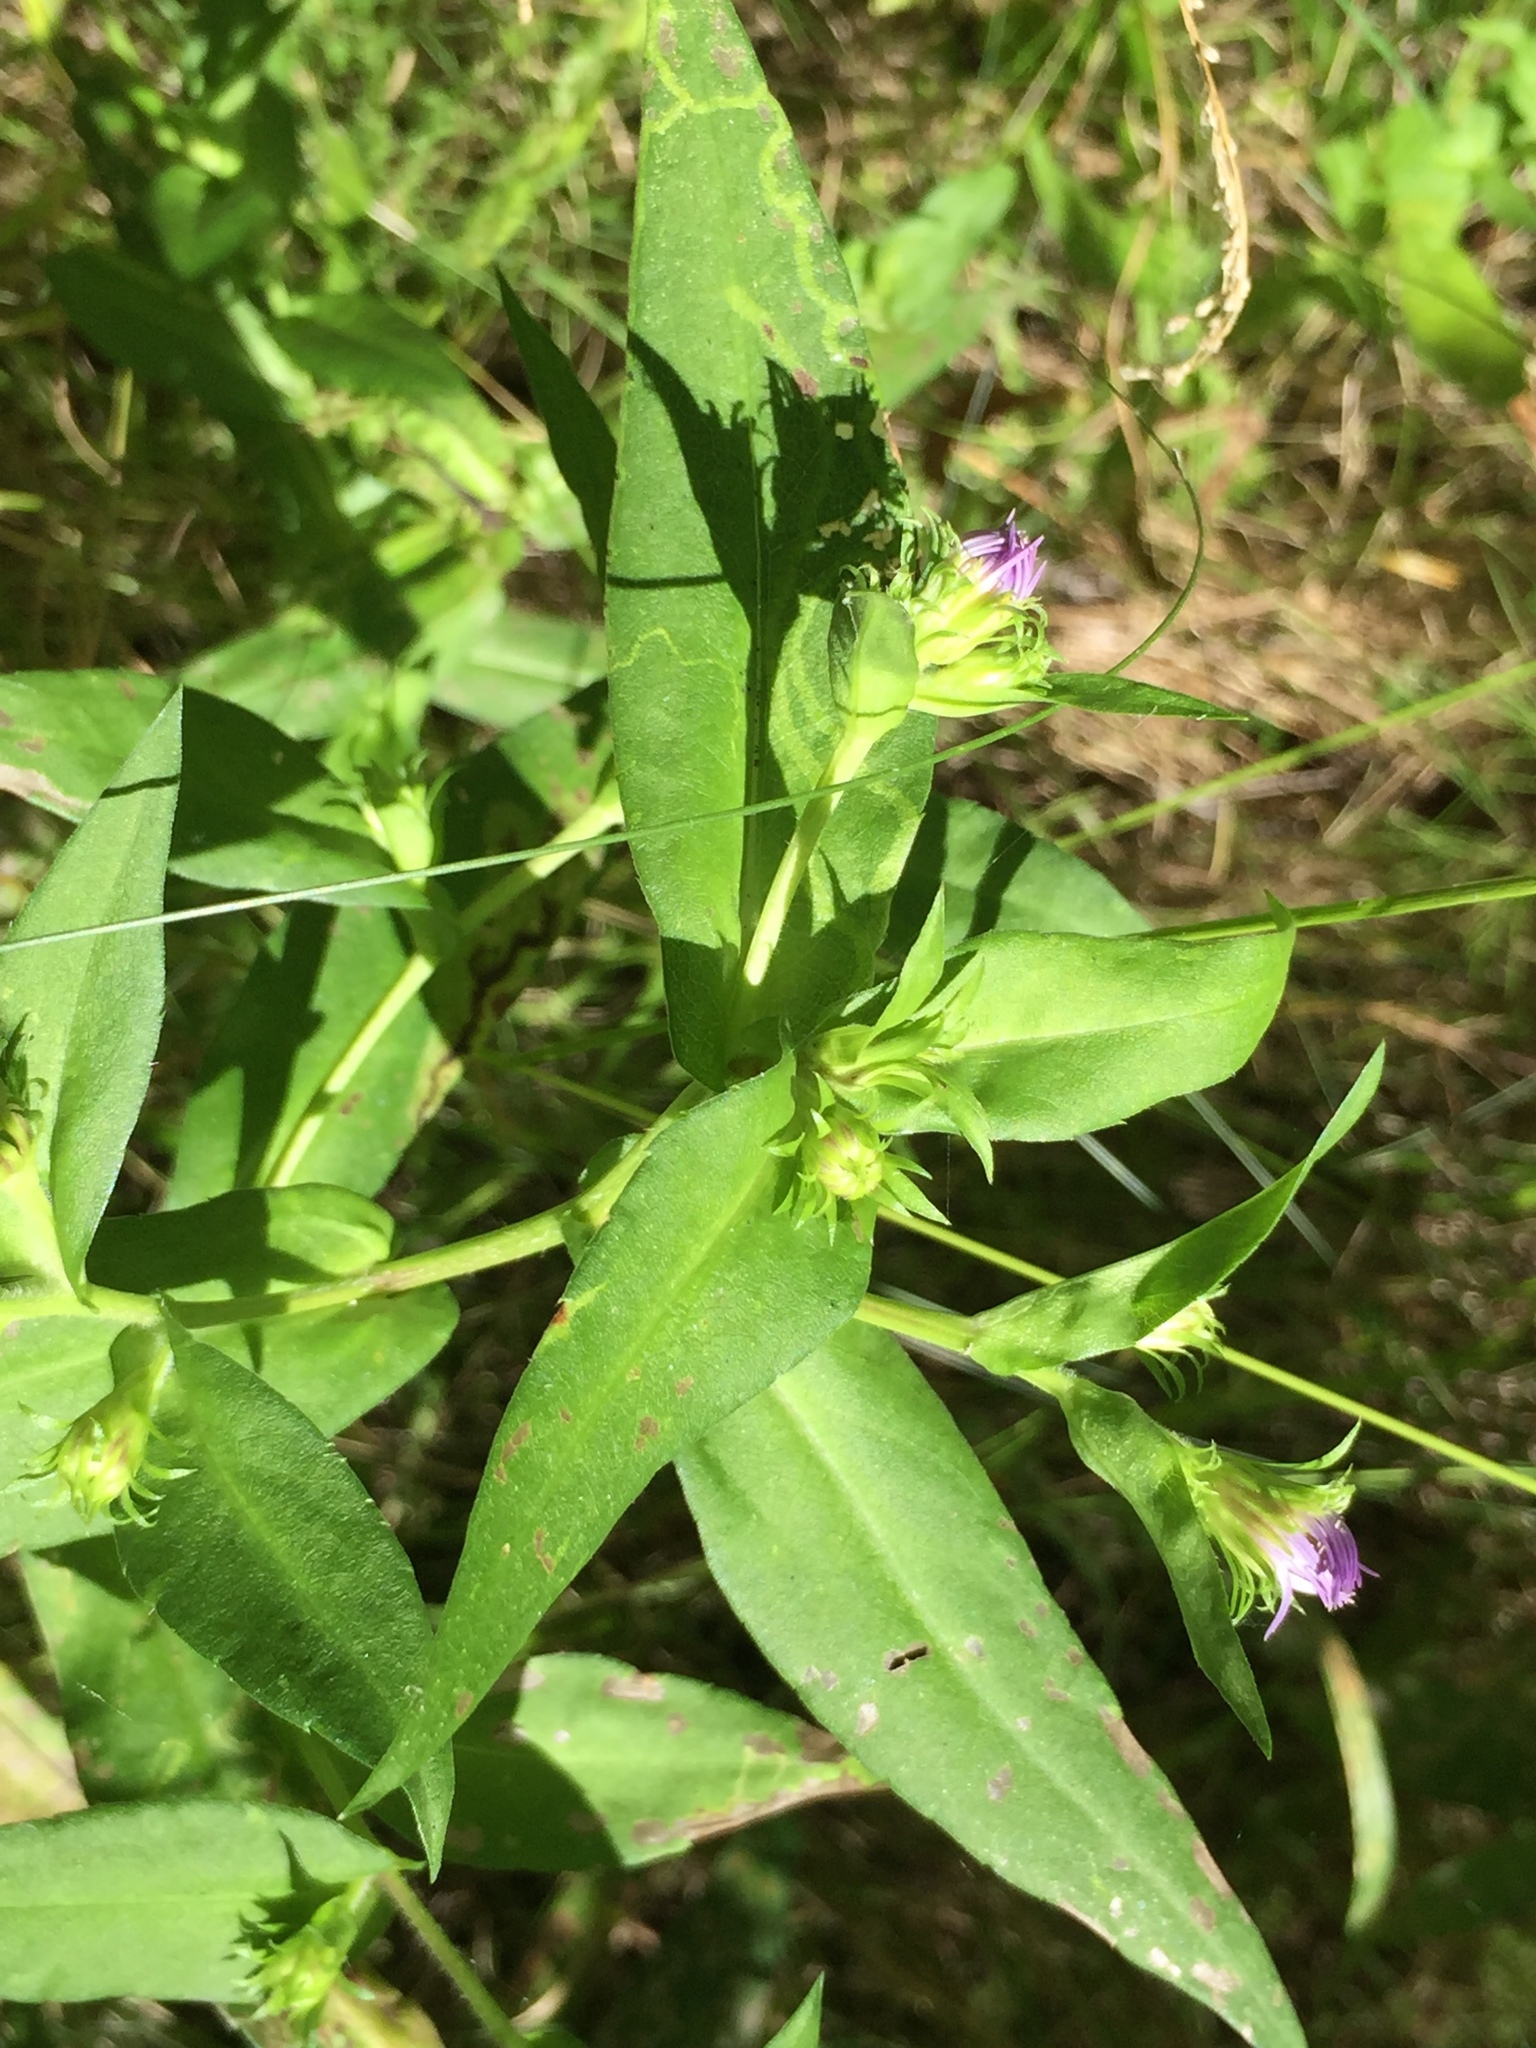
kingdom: Plantae
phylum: Tracheophyta
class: Magnoliopsida
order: Asterales
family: Asteraceae
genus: Symphyotrichum
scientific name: Symphyotrichum puniceum
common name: Bog aster
